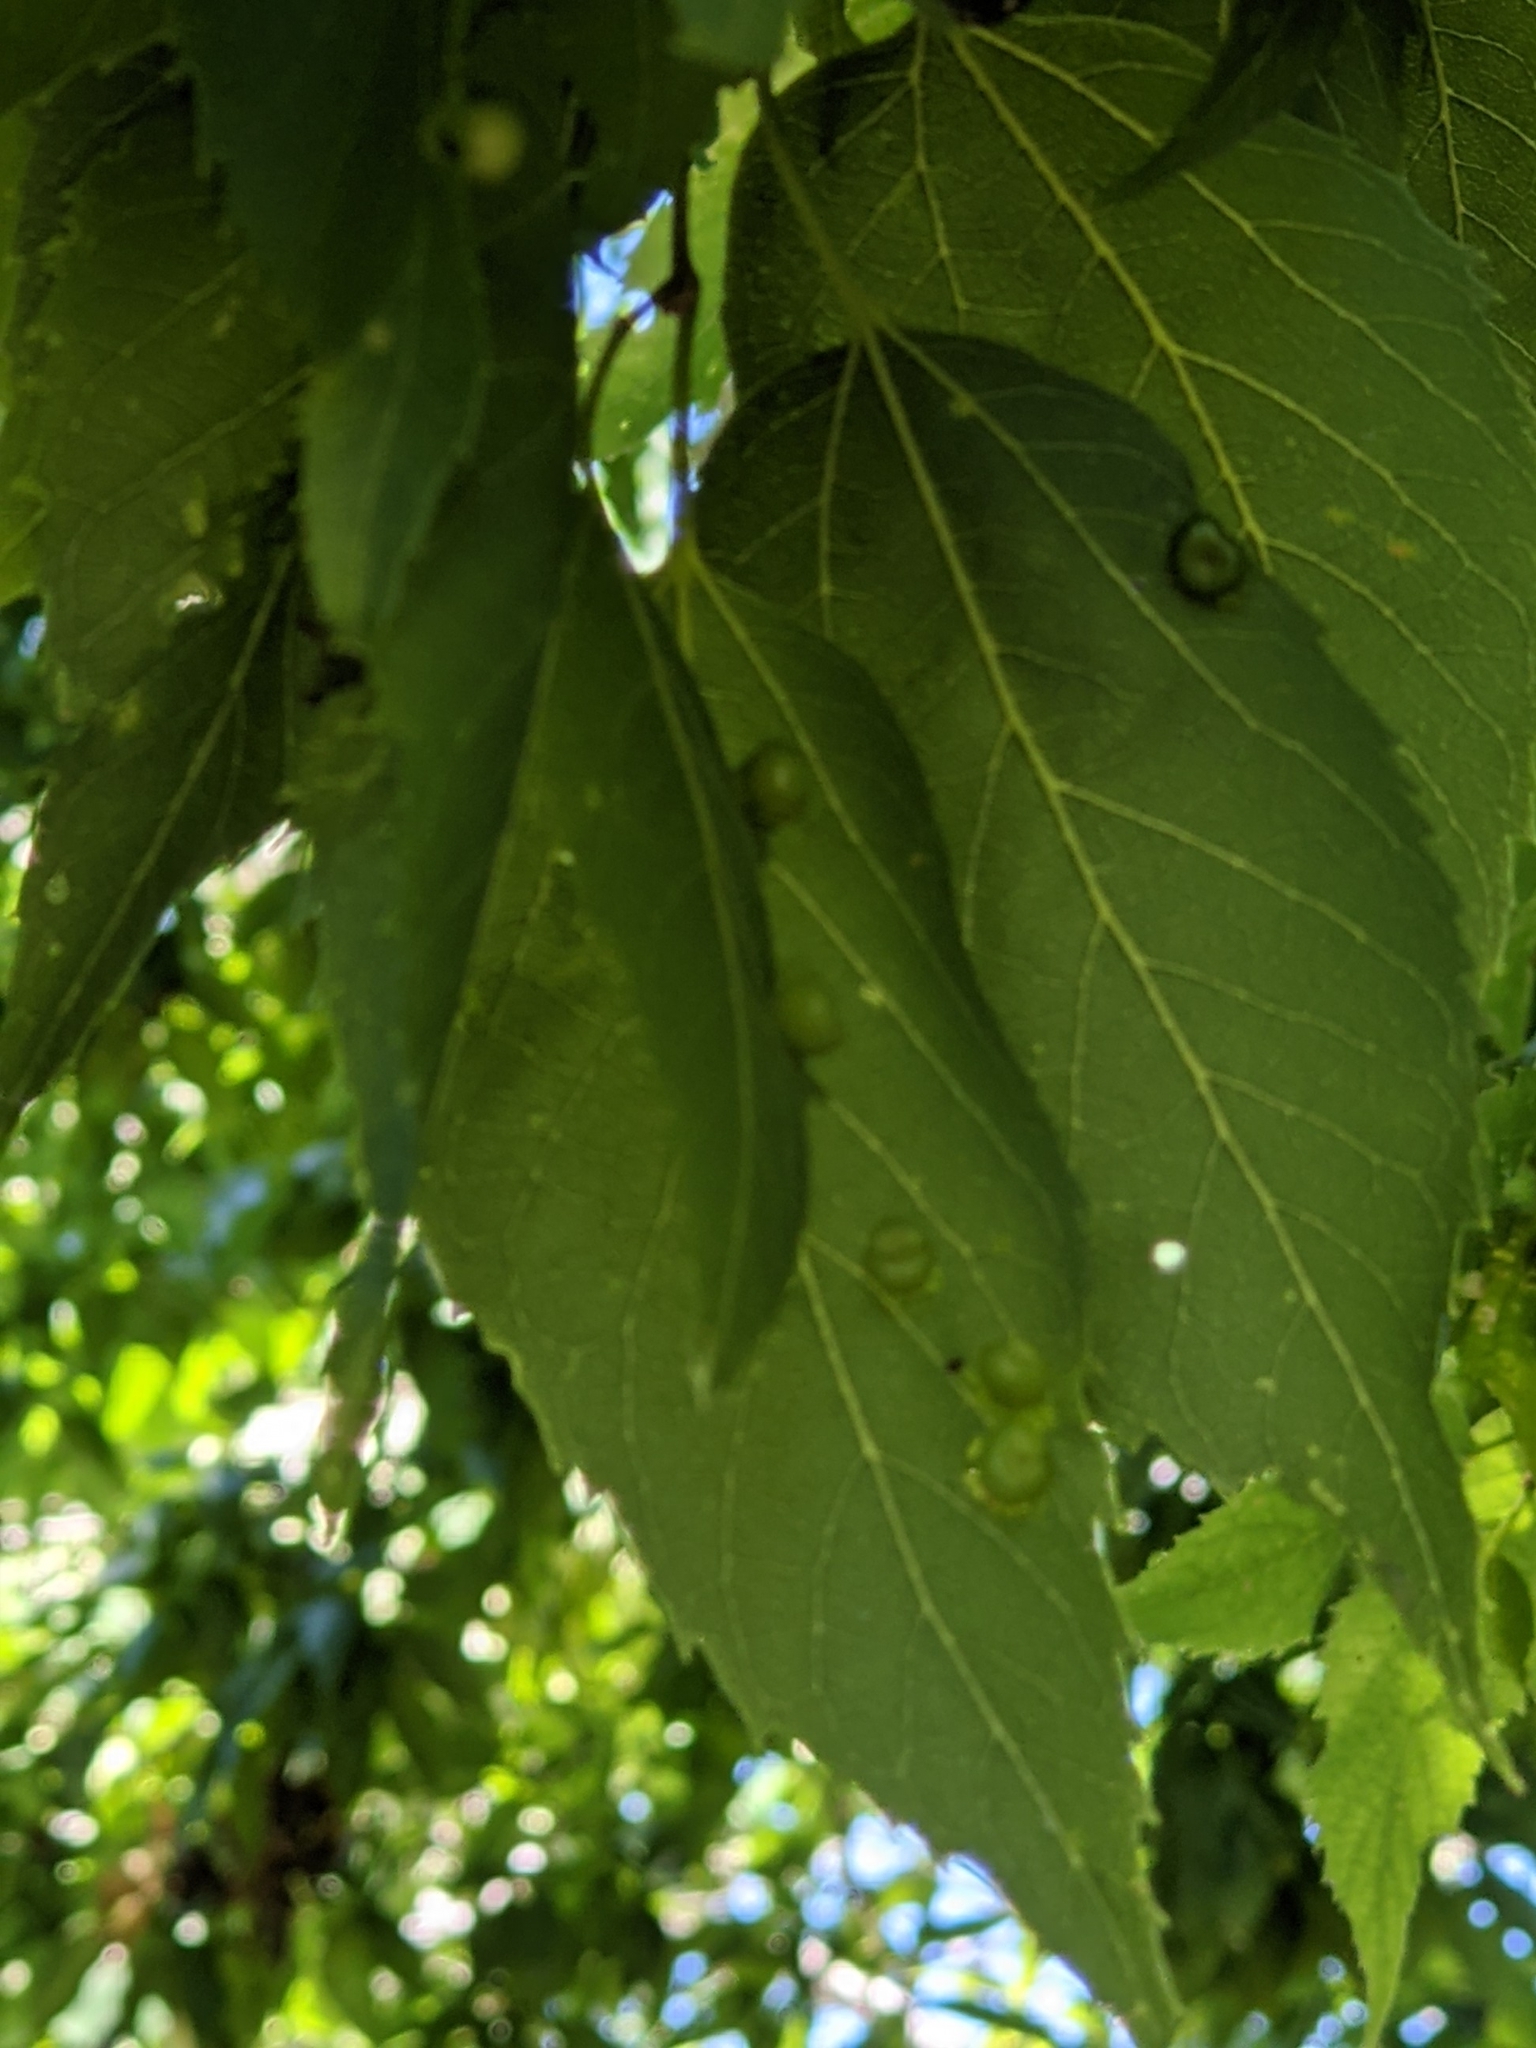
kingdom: Animalia
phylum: Arthropoda
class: Insecta
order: Hemiptera
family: Aphalaridae
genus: Pachypsylla
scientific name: Pachypsylla celtidismamma
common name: Hackberry nipplegall psyllid
